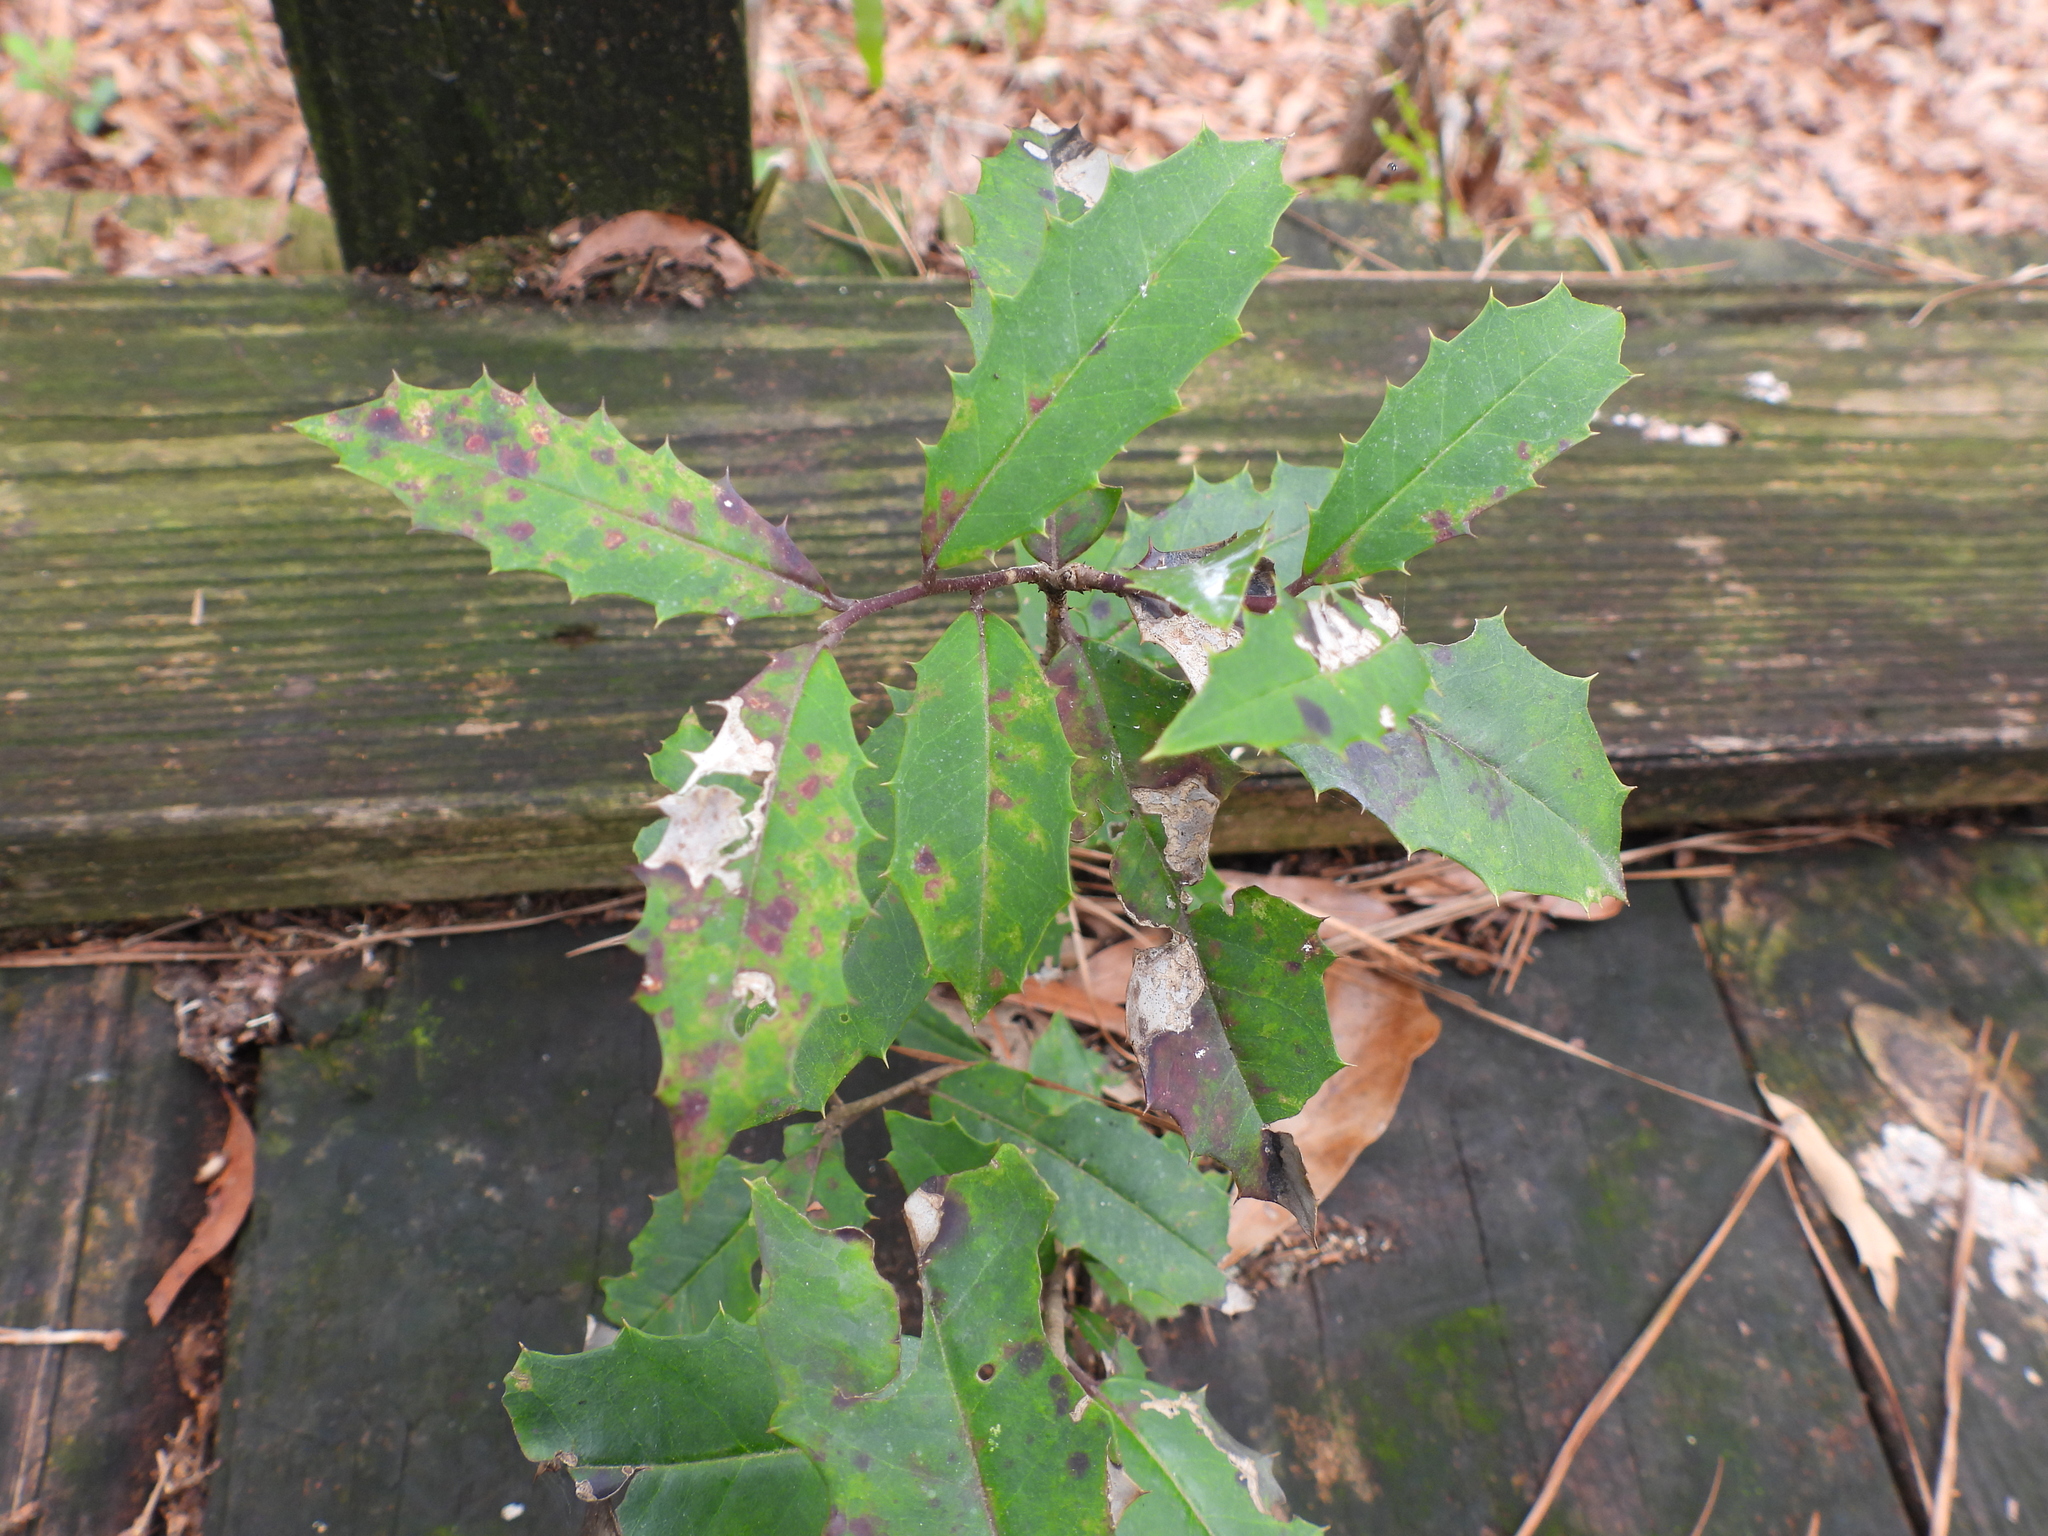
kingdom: Plantae
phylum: Tracheophyta
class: Magnoliopsida
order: Aquifoliales
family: Aquifoliaceae
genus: Ilex
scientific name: Ilex opaca
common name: American holly
